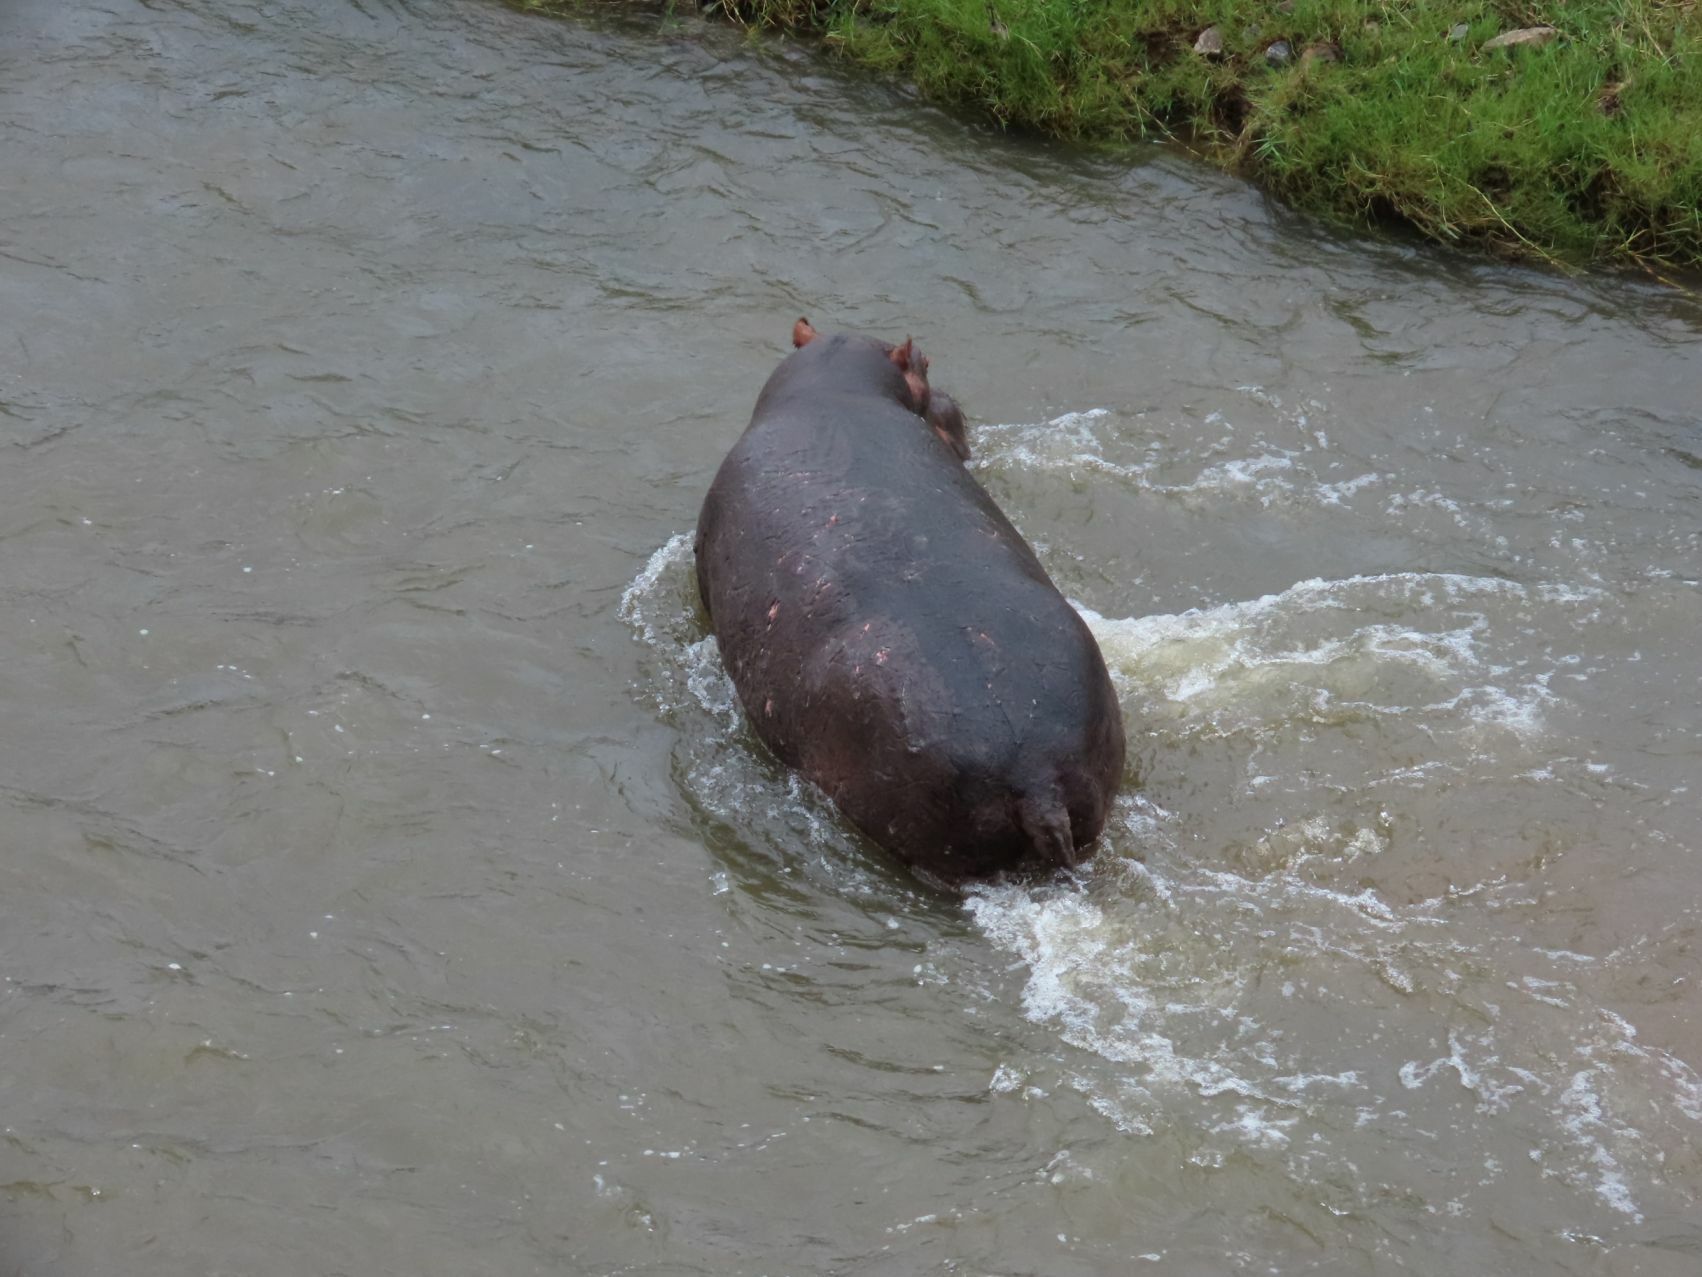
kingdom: Animalia
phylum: Chordata
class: Mammalia
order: Artiodactyla
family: Hippopotamidae
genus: Hippopotamus
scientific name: Hippopotamus amphibius
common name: Common hippopotamus
